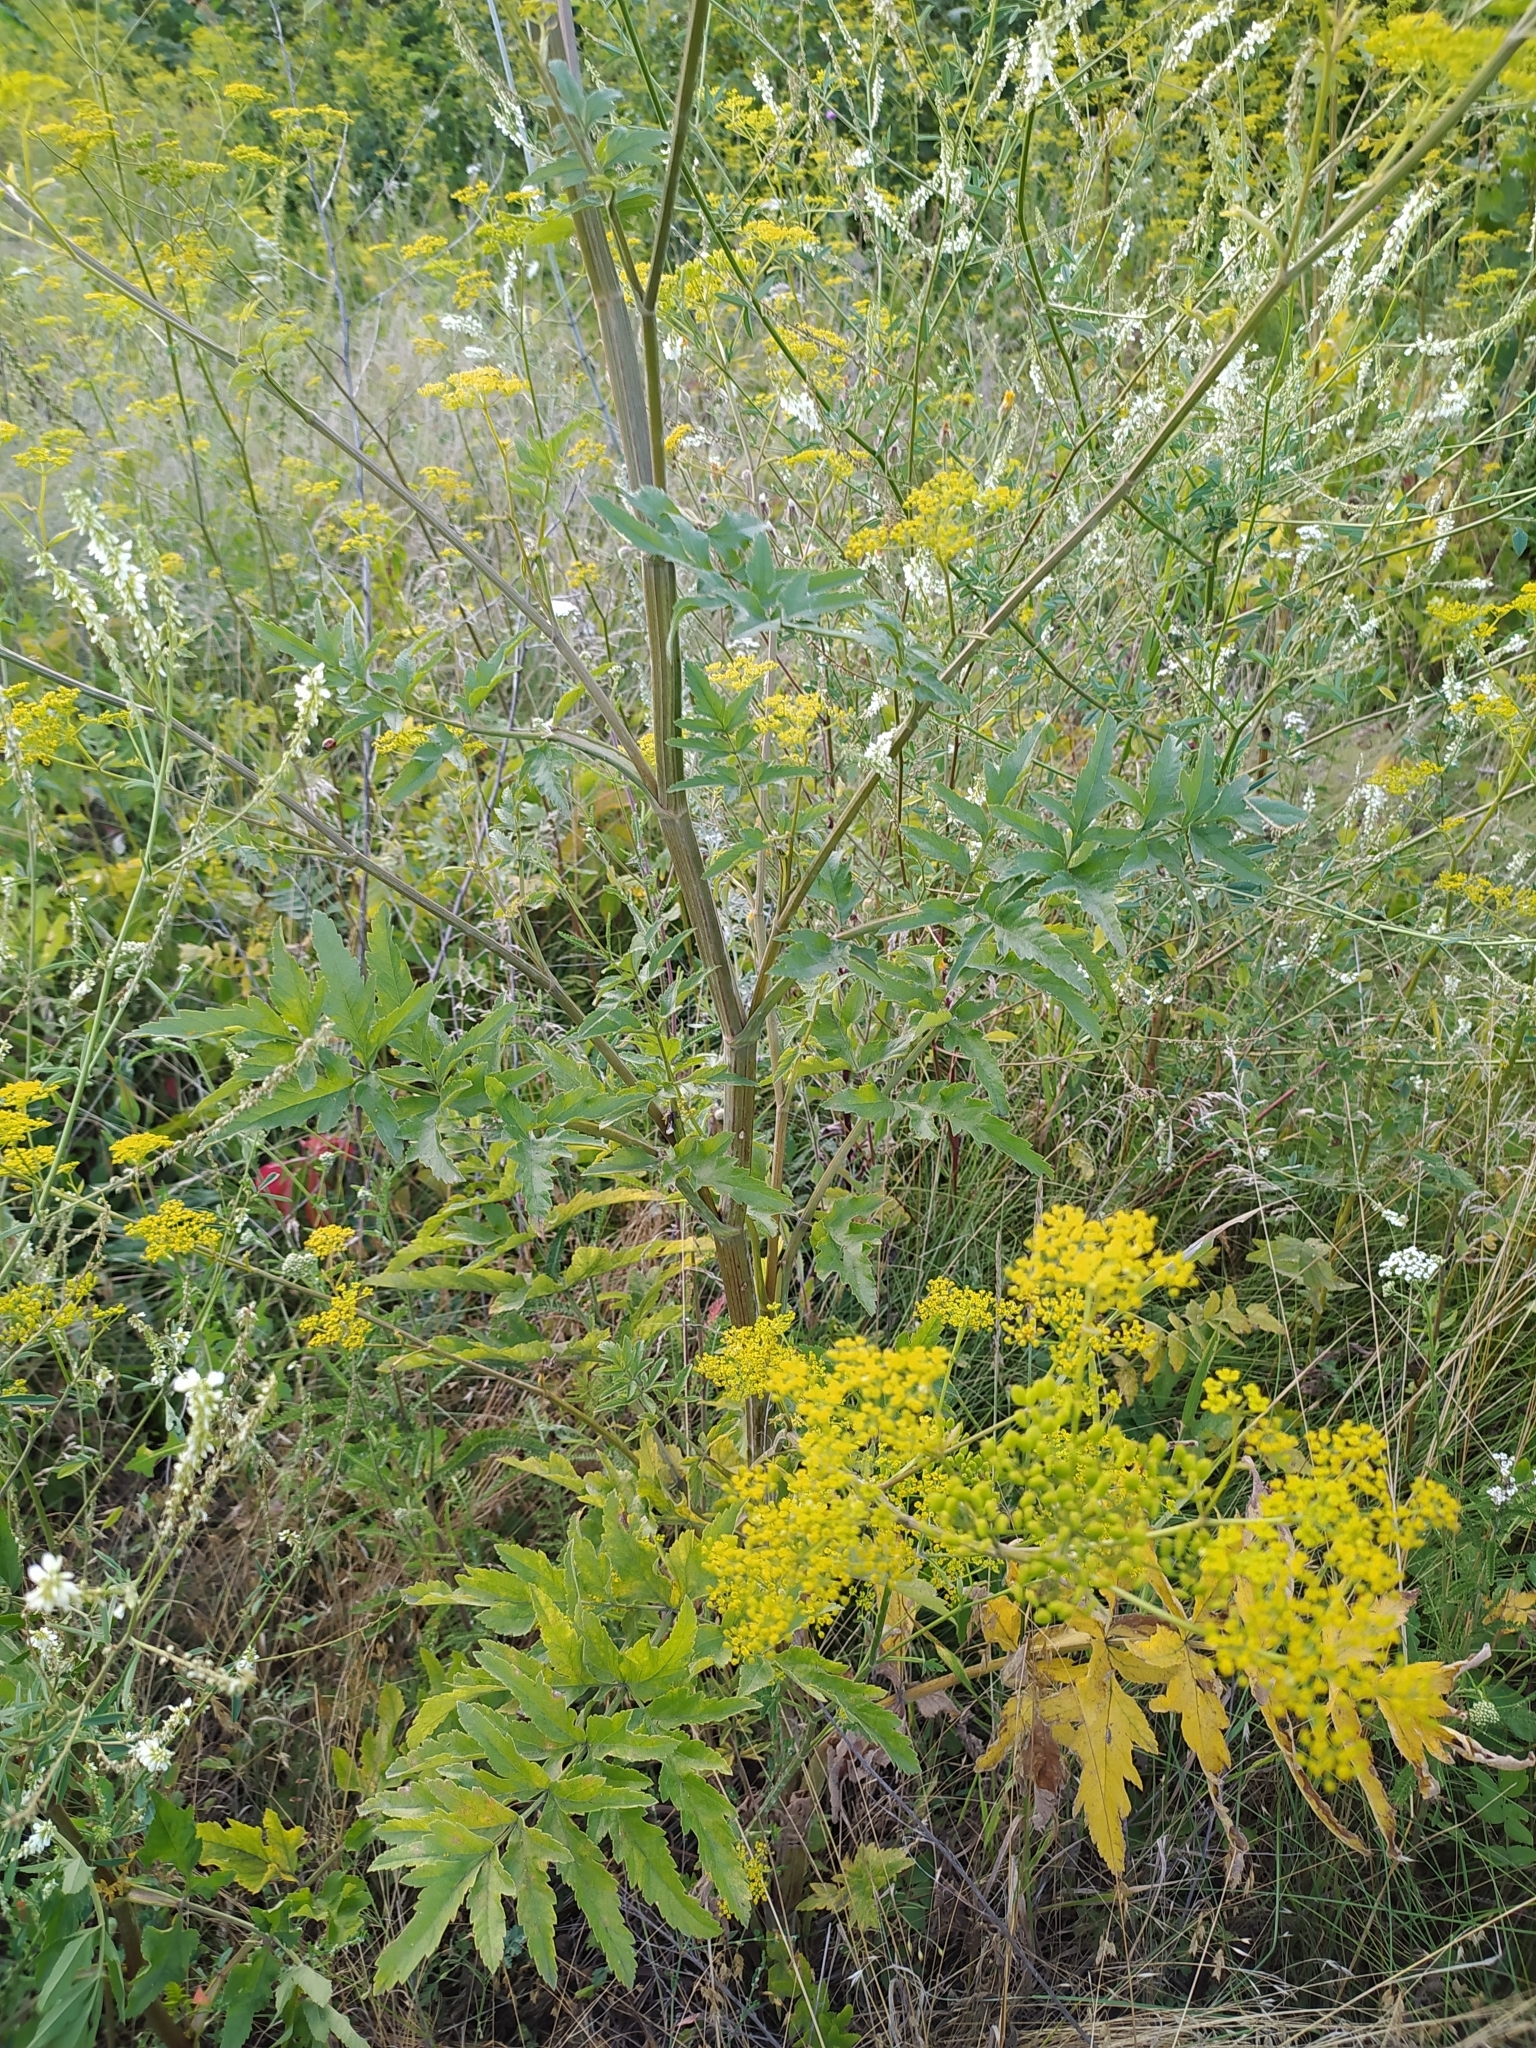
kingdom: Plantae
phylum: Tracheophyta
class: Magnoliopsida
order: Apiales
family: Apiaceae
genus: Pastinaca
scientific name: Pastinaca sativa
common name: Wild parsnip
